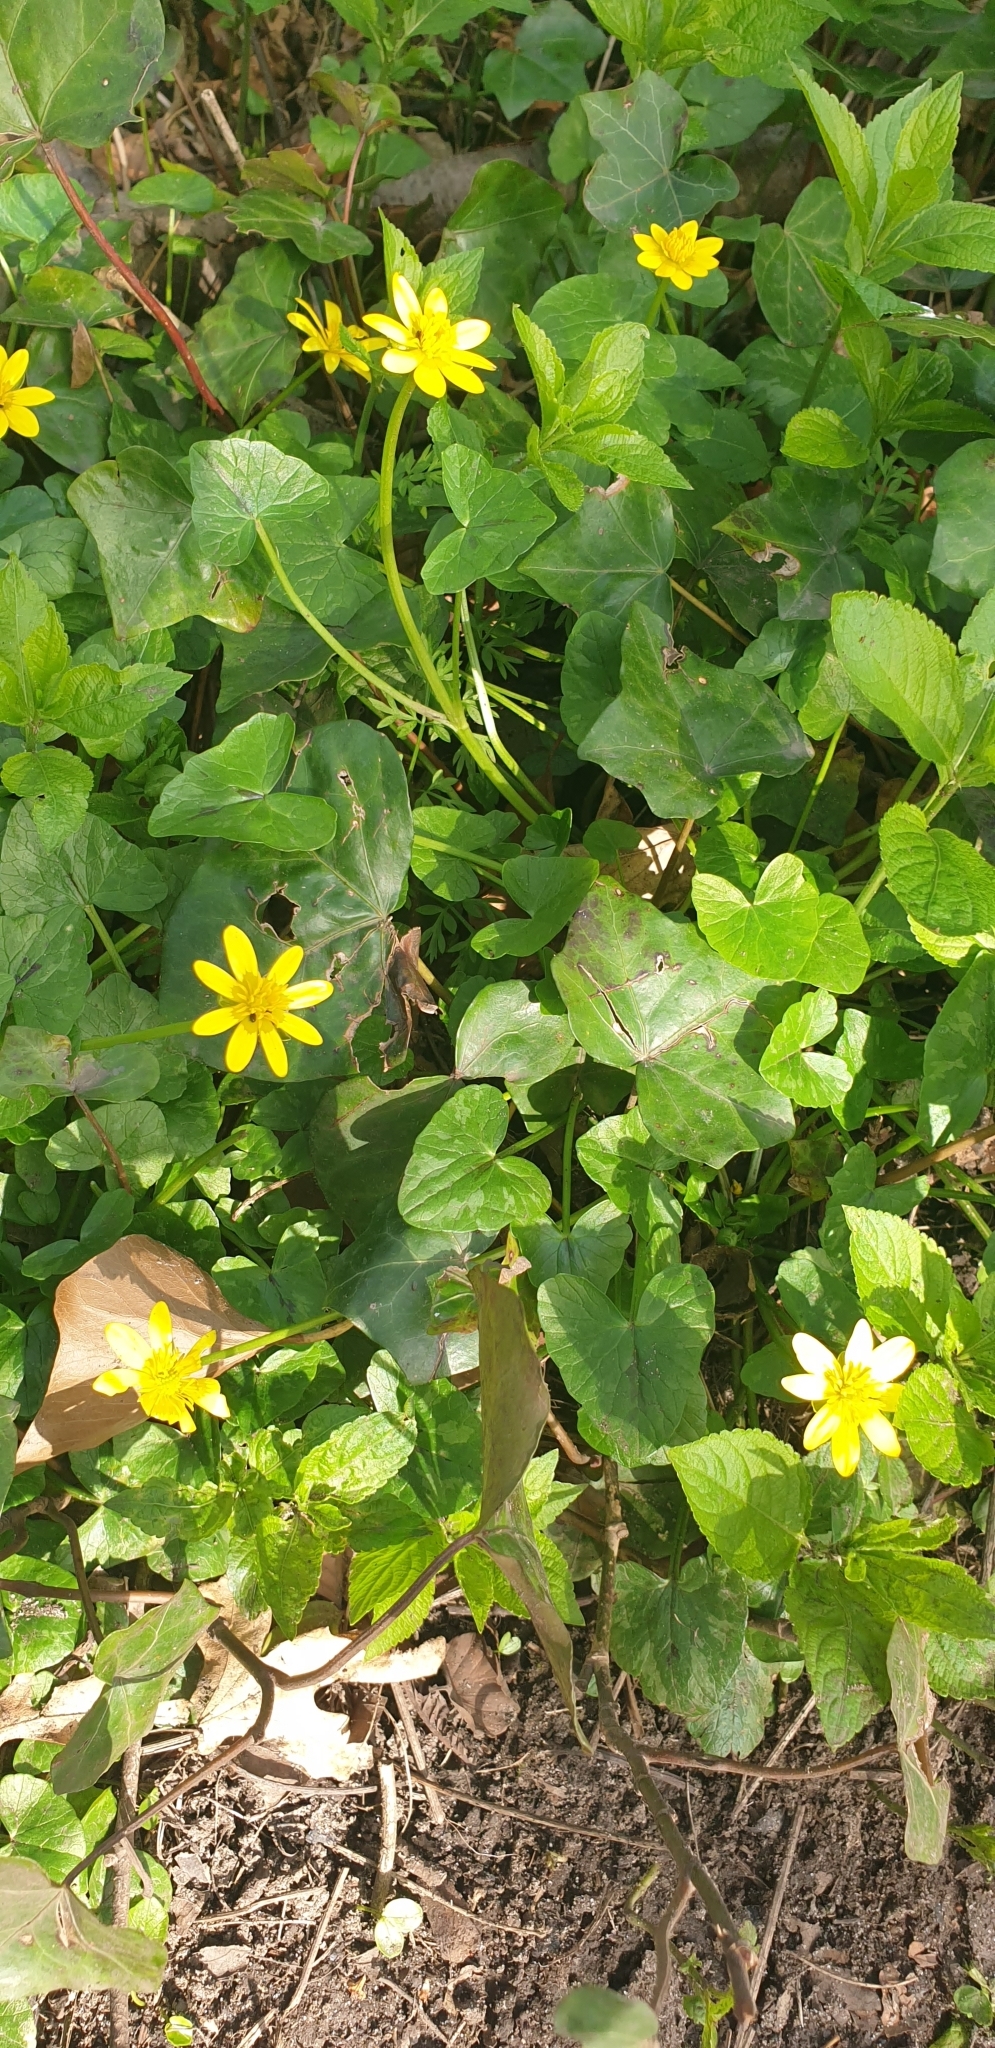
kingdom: Plantae
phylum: Tracheophyta
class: Magnoliopsida
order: Ranunculales
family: Ranunculaceae
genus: Ficaria
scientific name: Ficaria verna
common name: Lesser celandine
